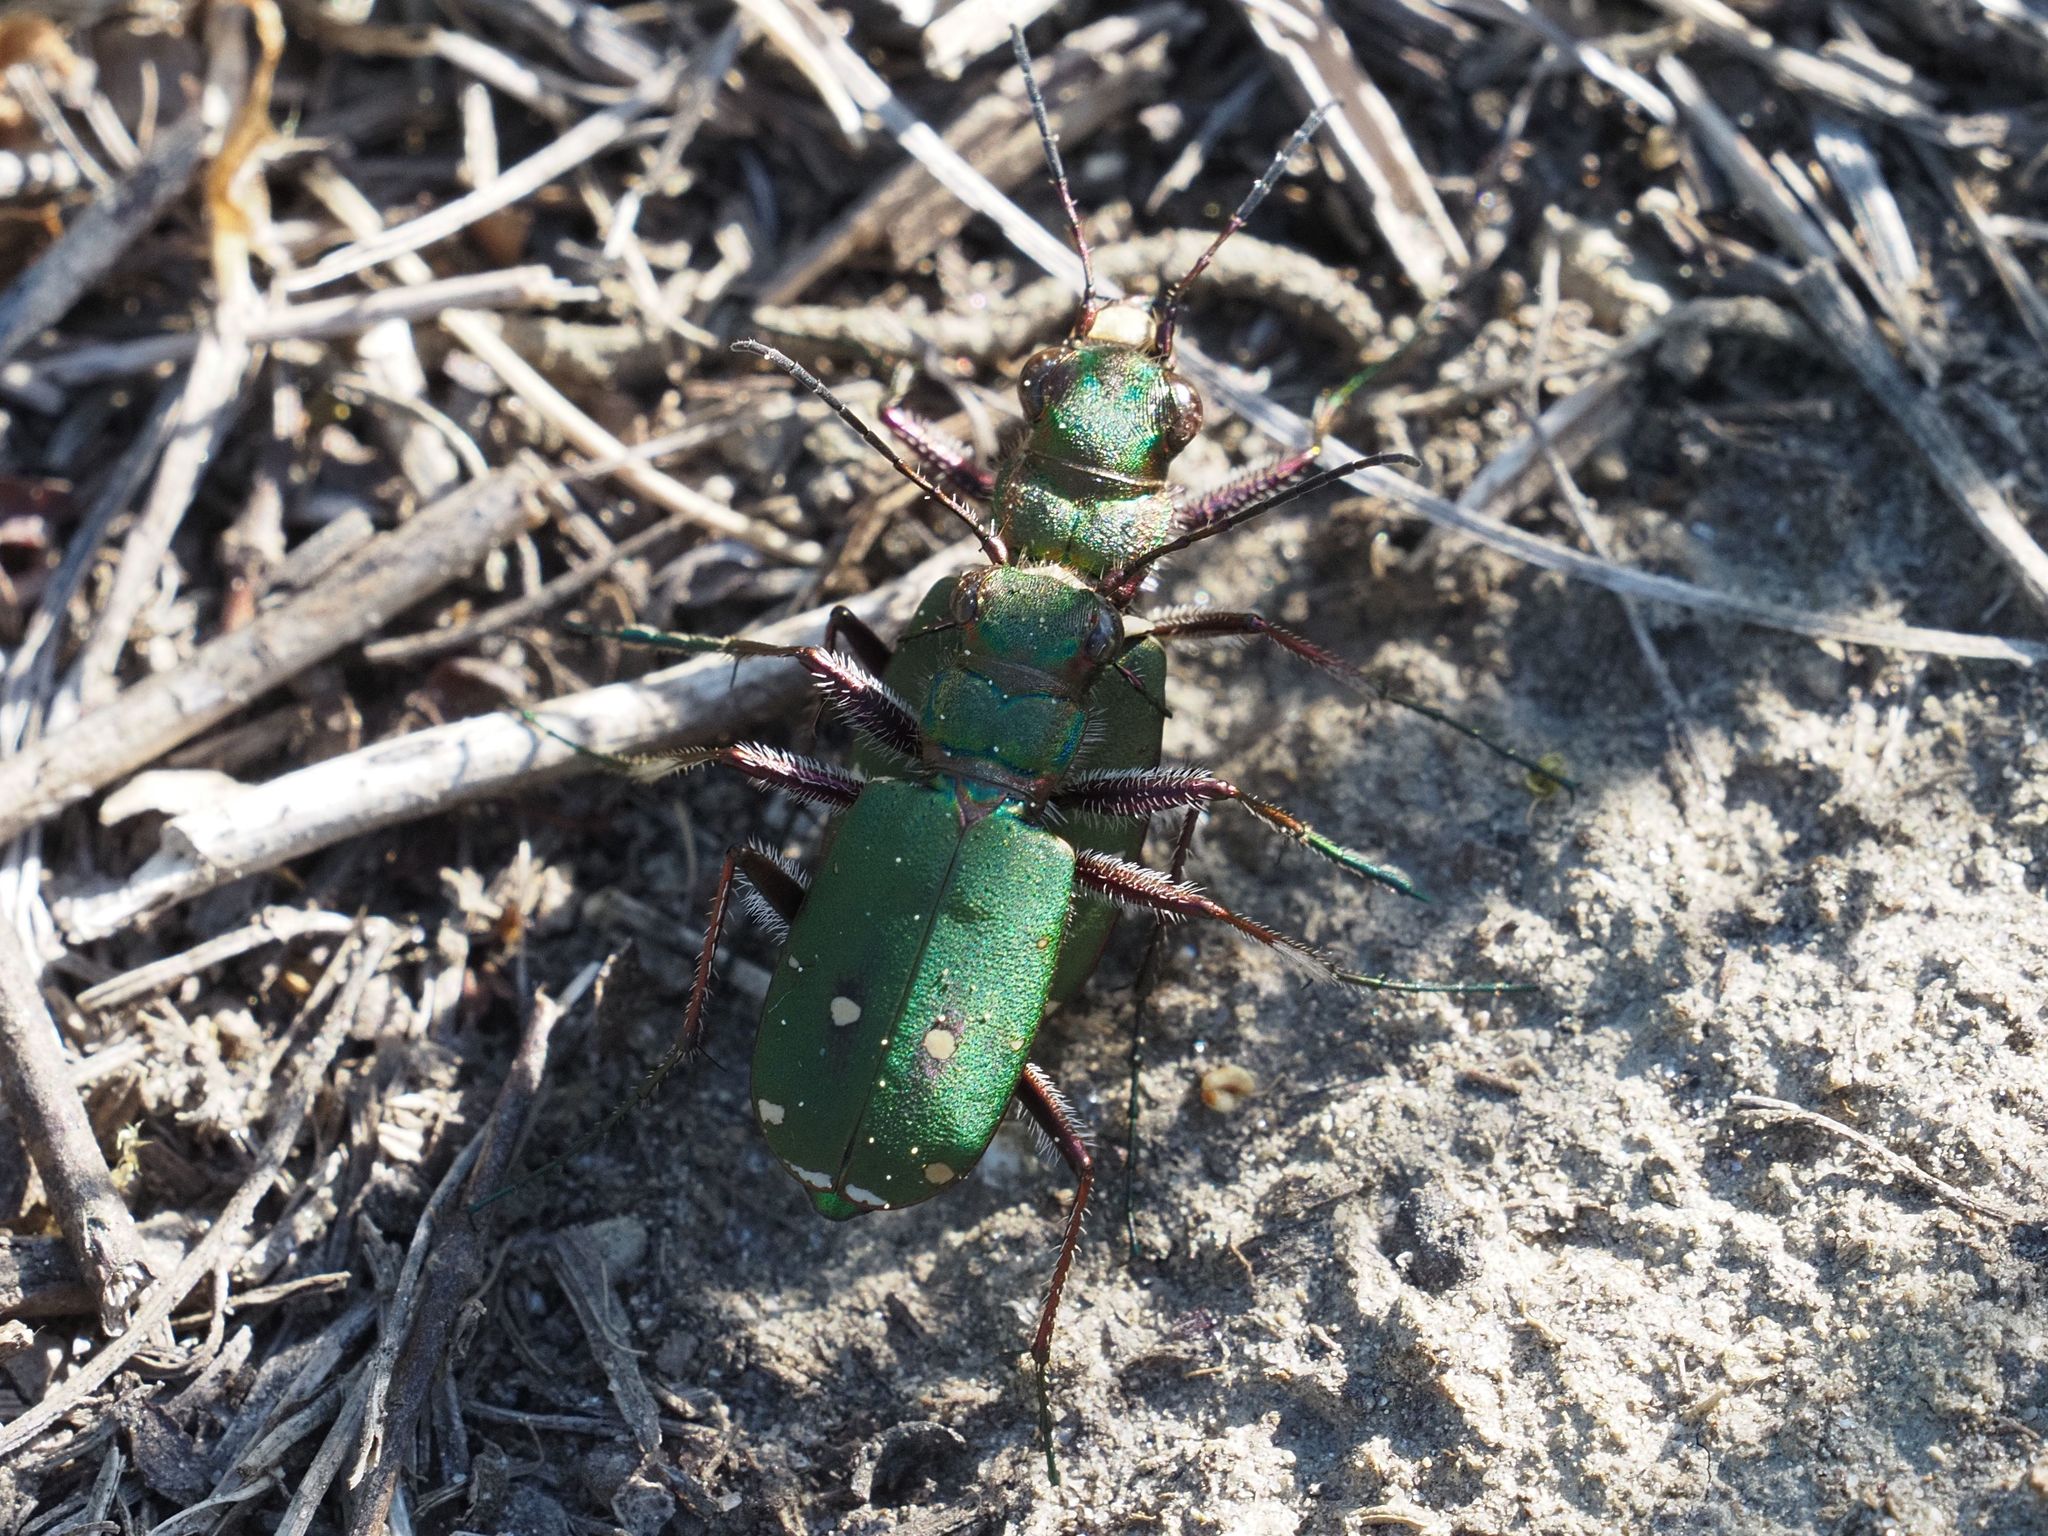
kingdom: Animalia
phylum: Arthropoda
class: Insecta
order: Coleoptera
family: Carabidae
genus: Cicindela
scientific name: Cicindela campestris
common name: Common tiger beetle
